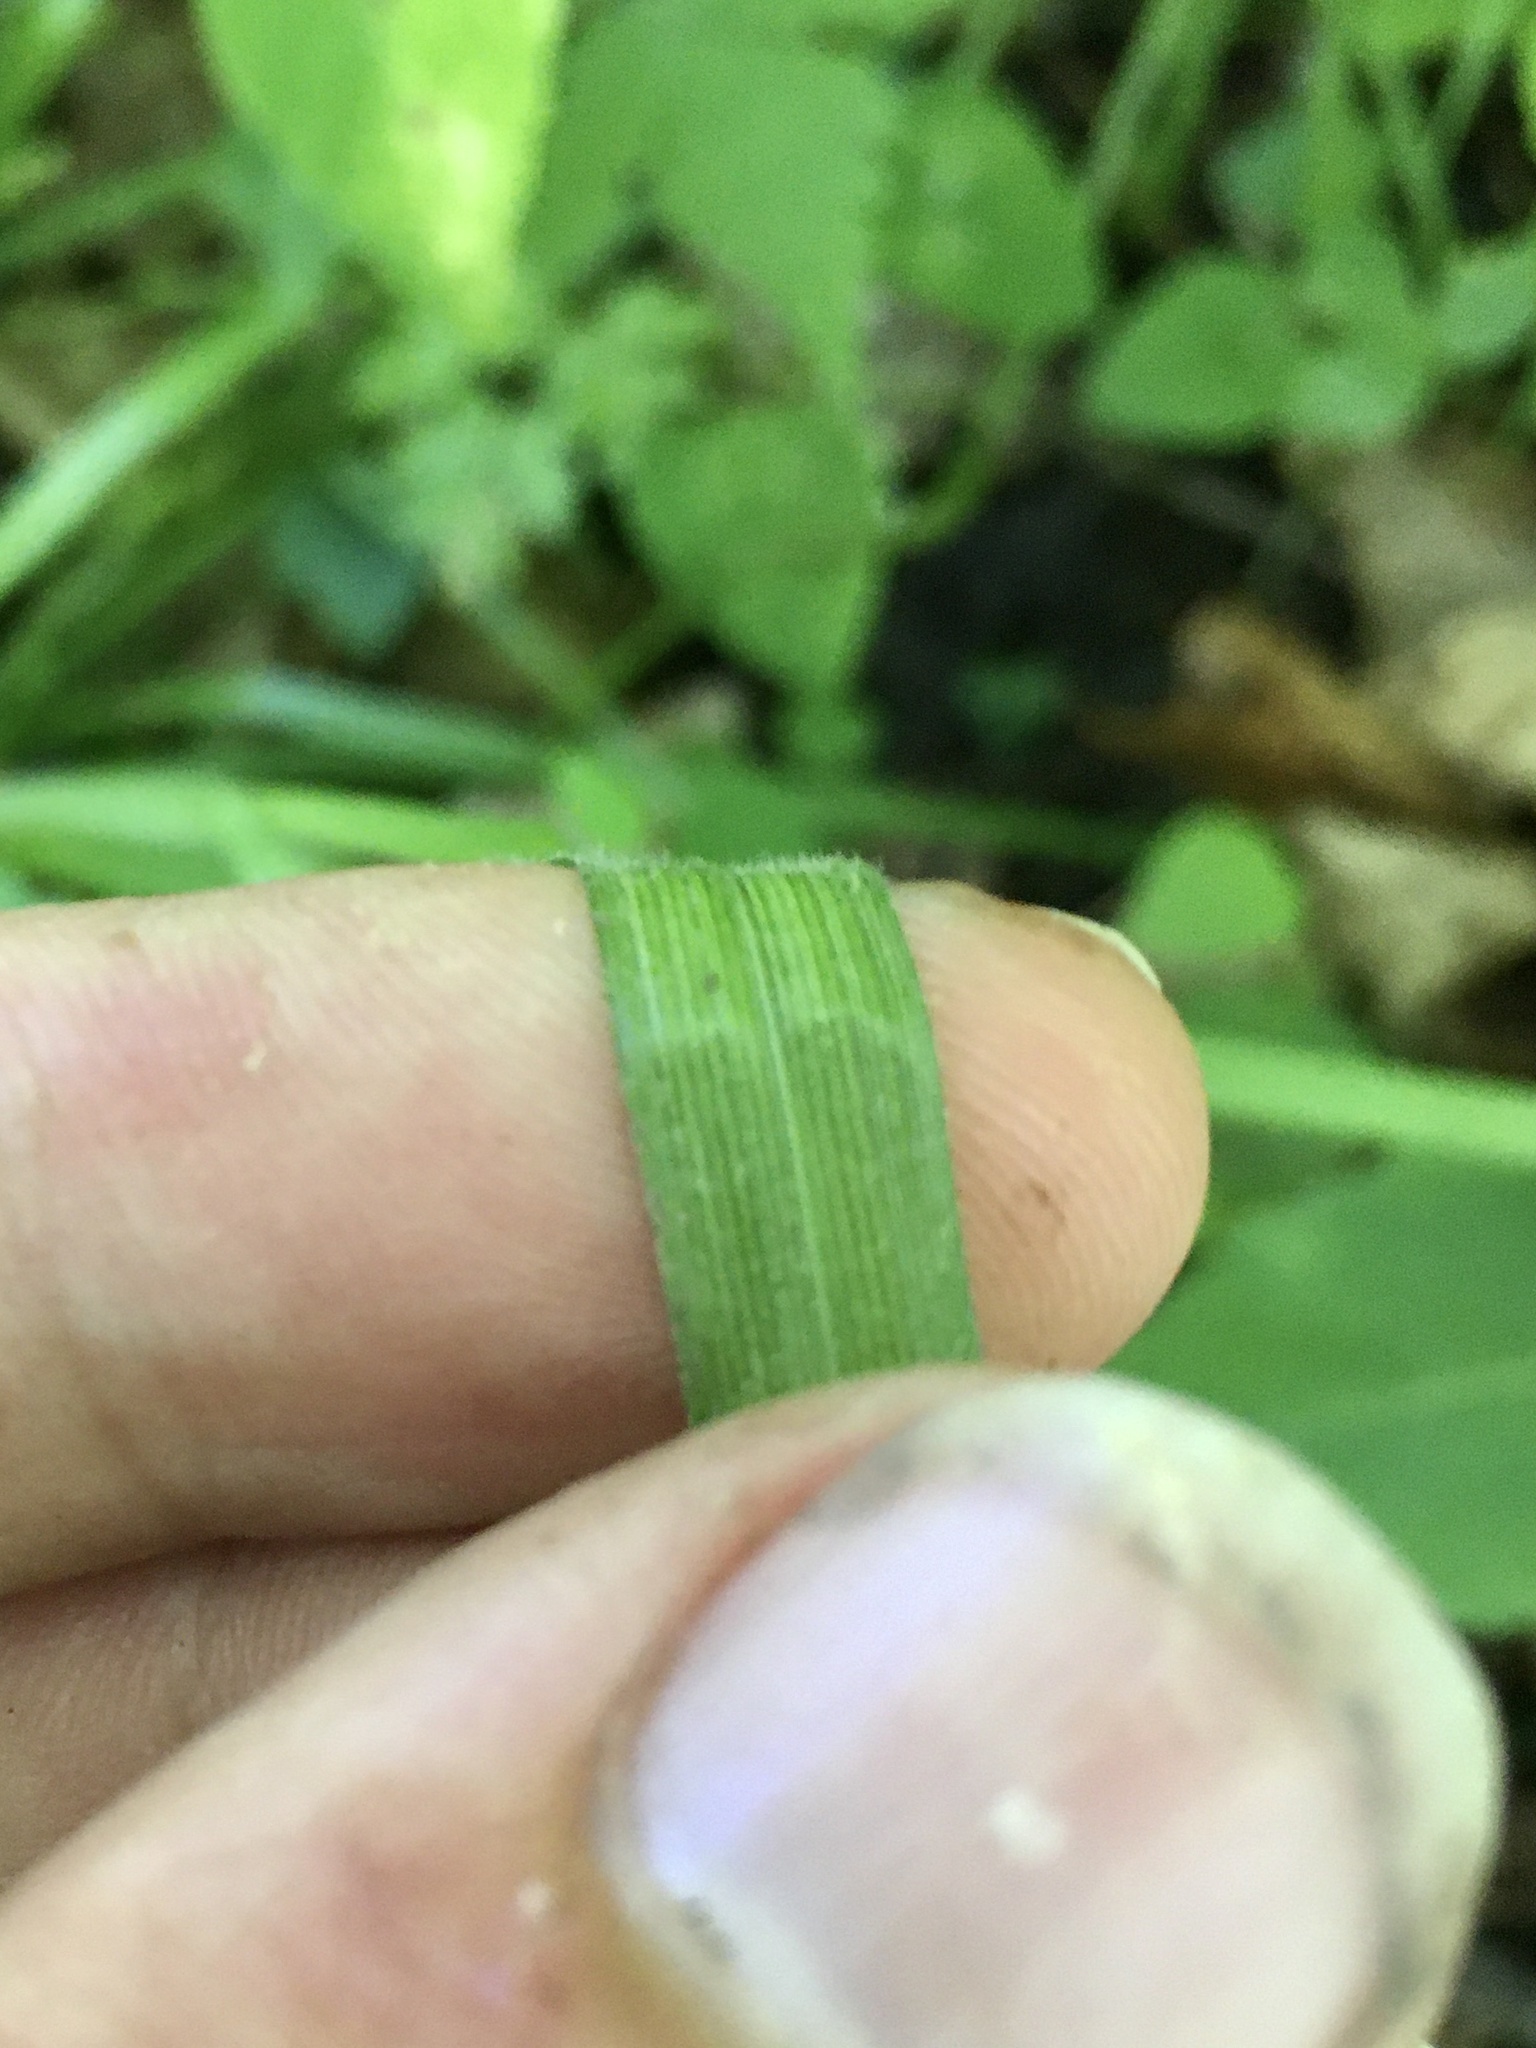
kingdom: Plantae
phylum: Tracheophyta
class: Liliopsida
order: Poales
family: Cyperaceae
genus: Carex
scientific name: Carex davisii
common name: Davis' sedge
